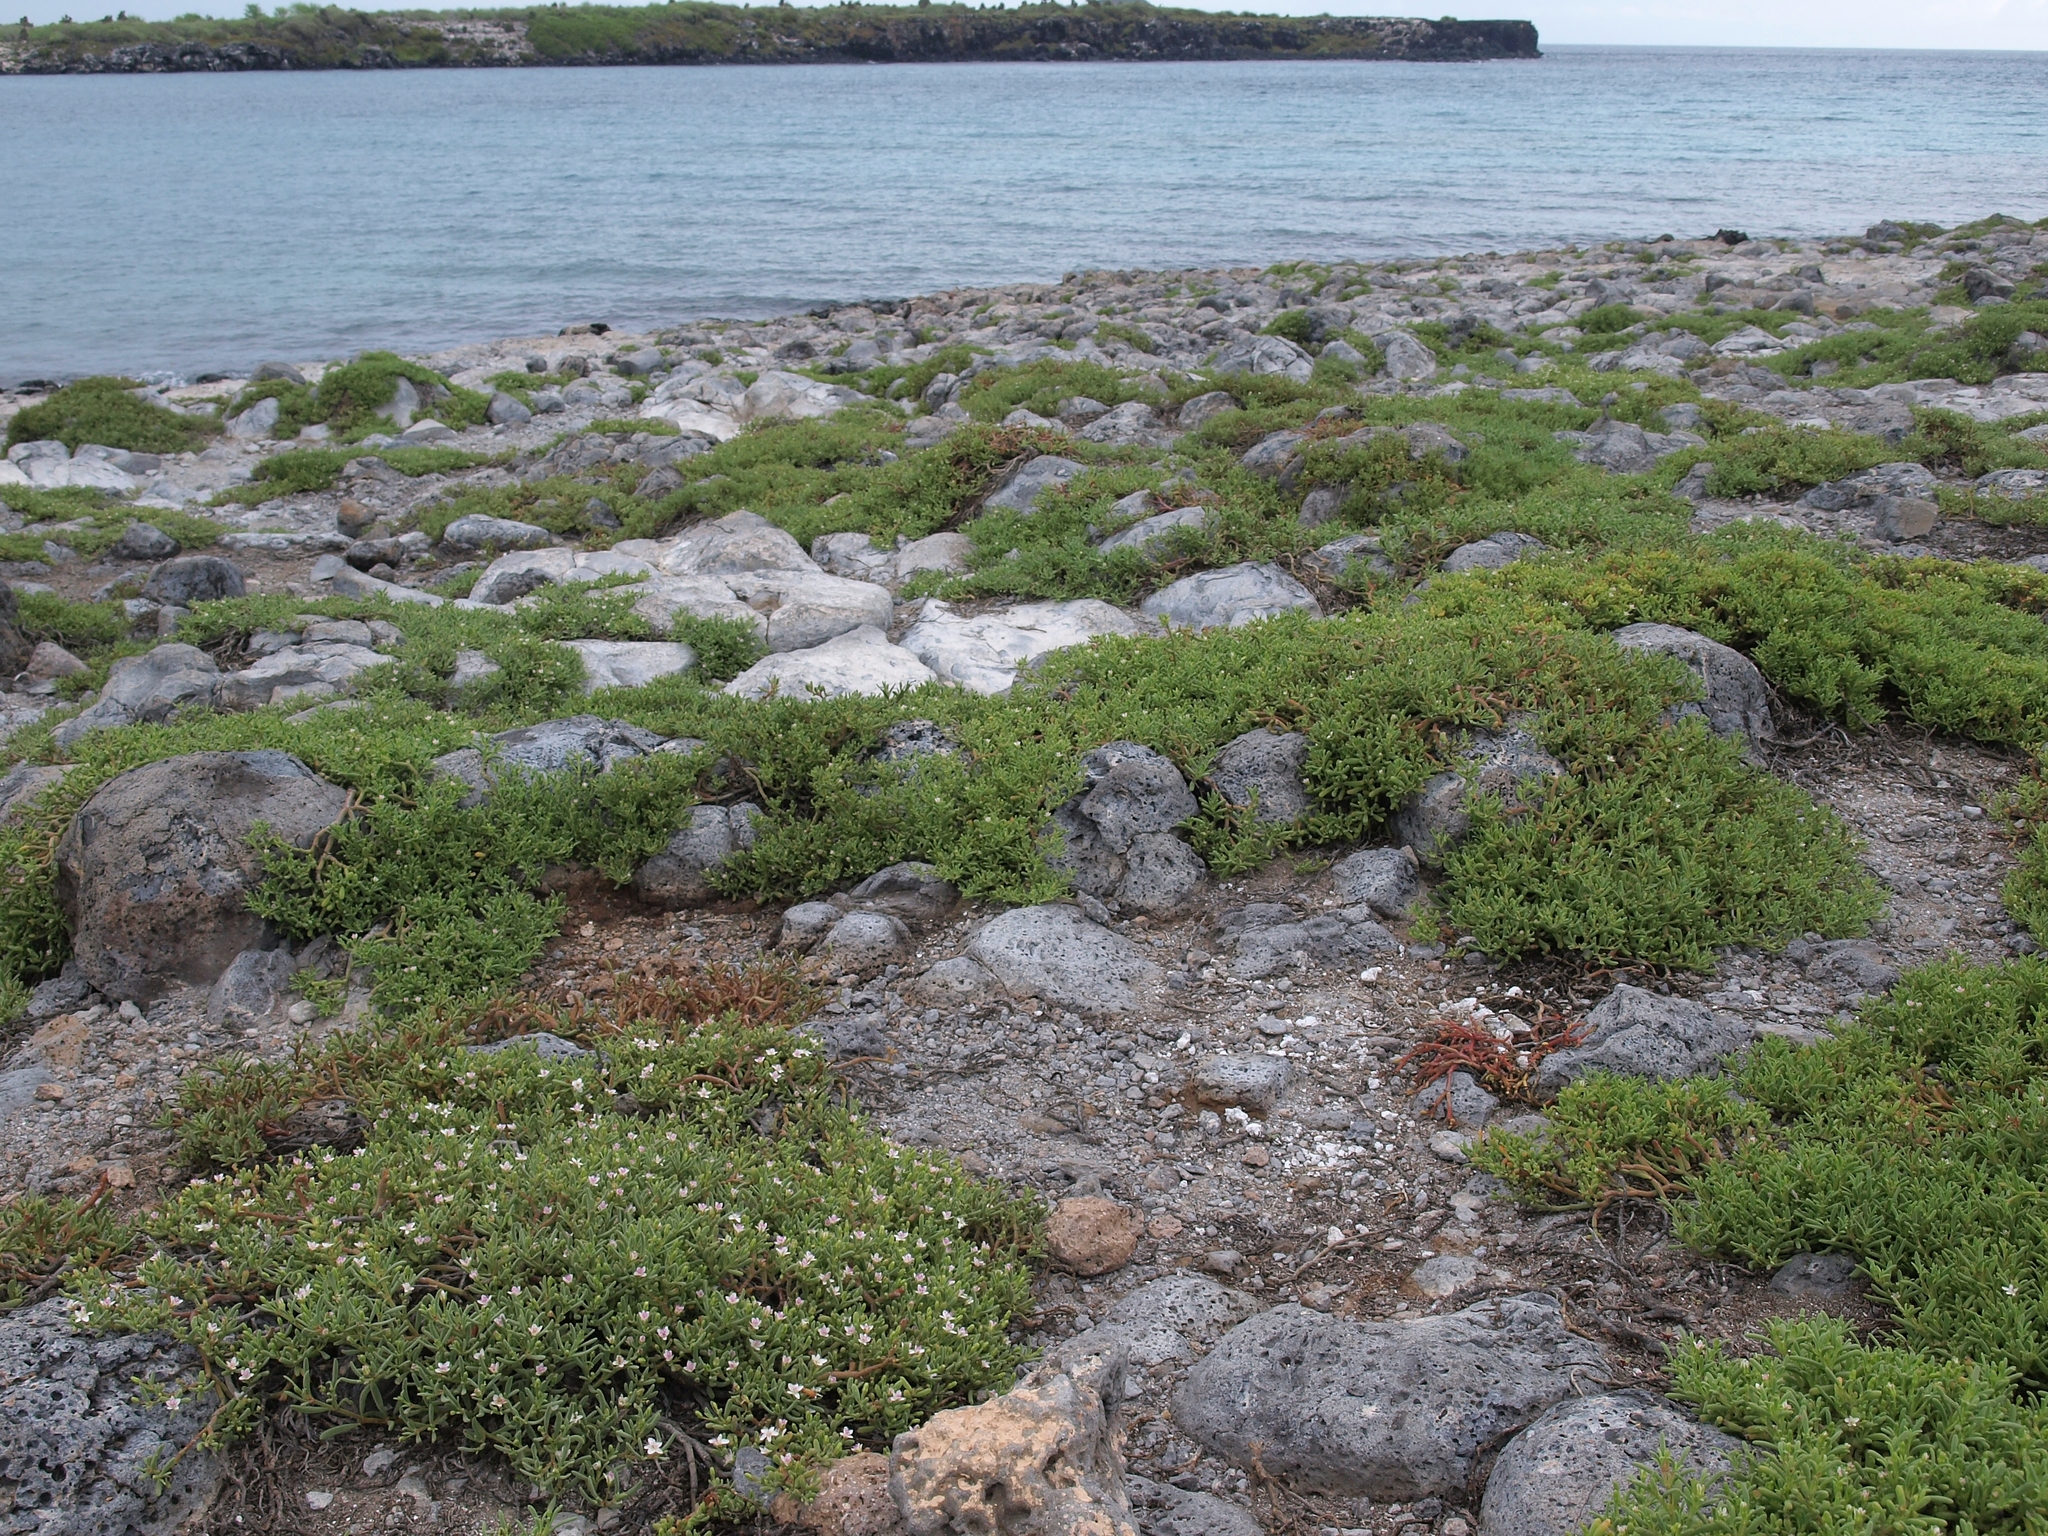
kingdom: Plantae
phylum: Tracheophyta
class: Magnoliopsida
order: Caryophyllales
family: Aizoaceae
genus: Sesuvium
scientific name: Sesuvium edmonstonei
